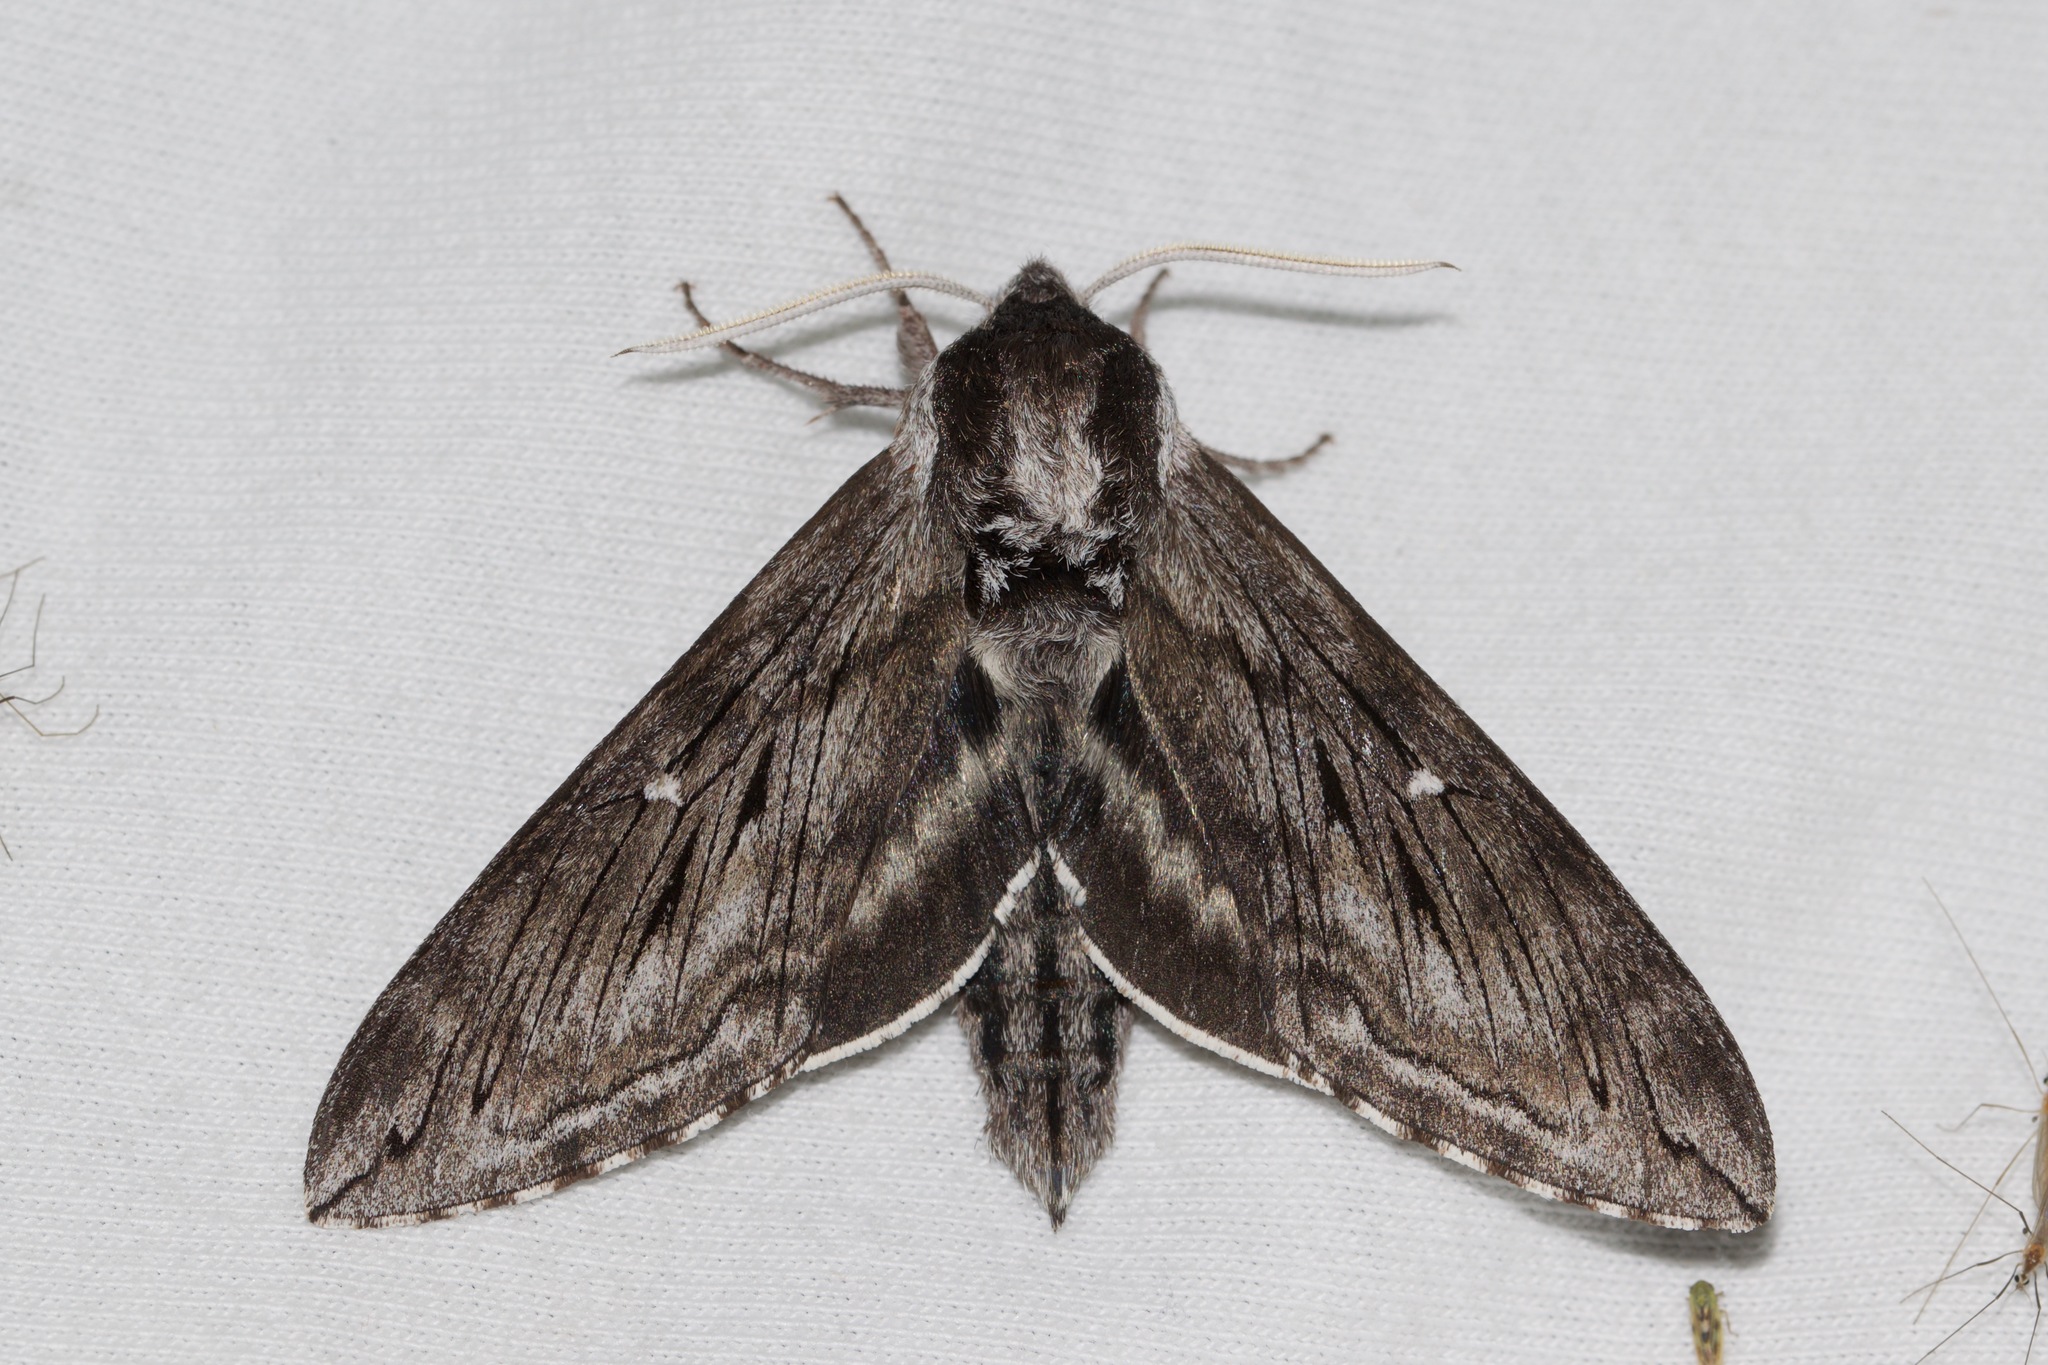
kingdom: Animalia
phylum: Arthropoda
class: Insecta
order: Lepidoptera
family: Sphingidae
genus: Sphinx
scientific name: Sphinx poecila
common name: Northern apple sphinx
